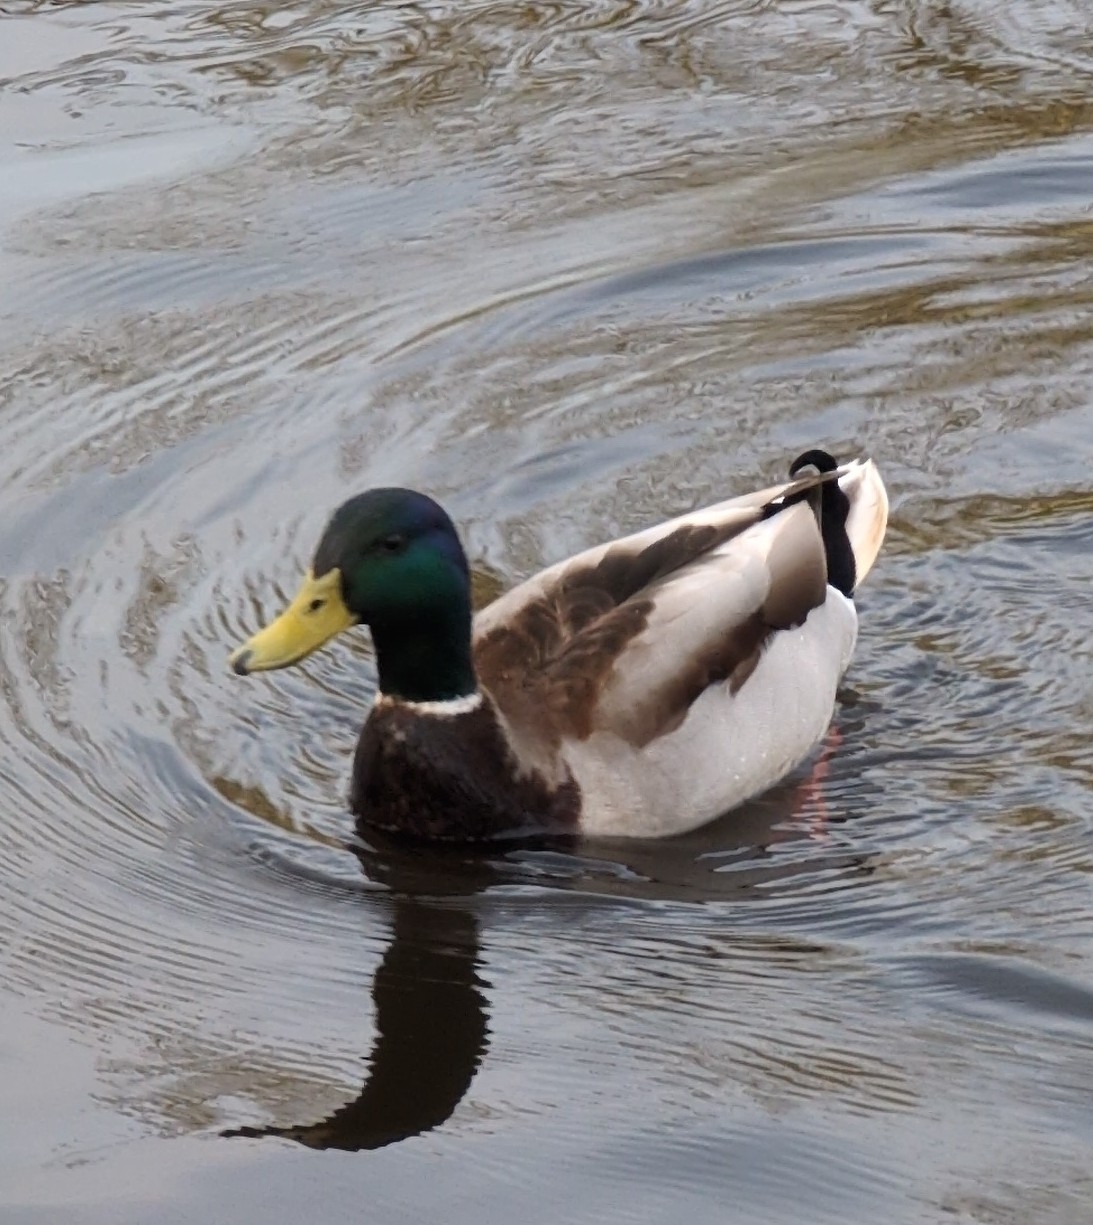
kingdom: Animalia
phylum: Chordata
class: Aves
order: Anseriformes
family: Anatidae
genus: Anas
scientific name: Anas platyrhynchos
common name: Mallard
